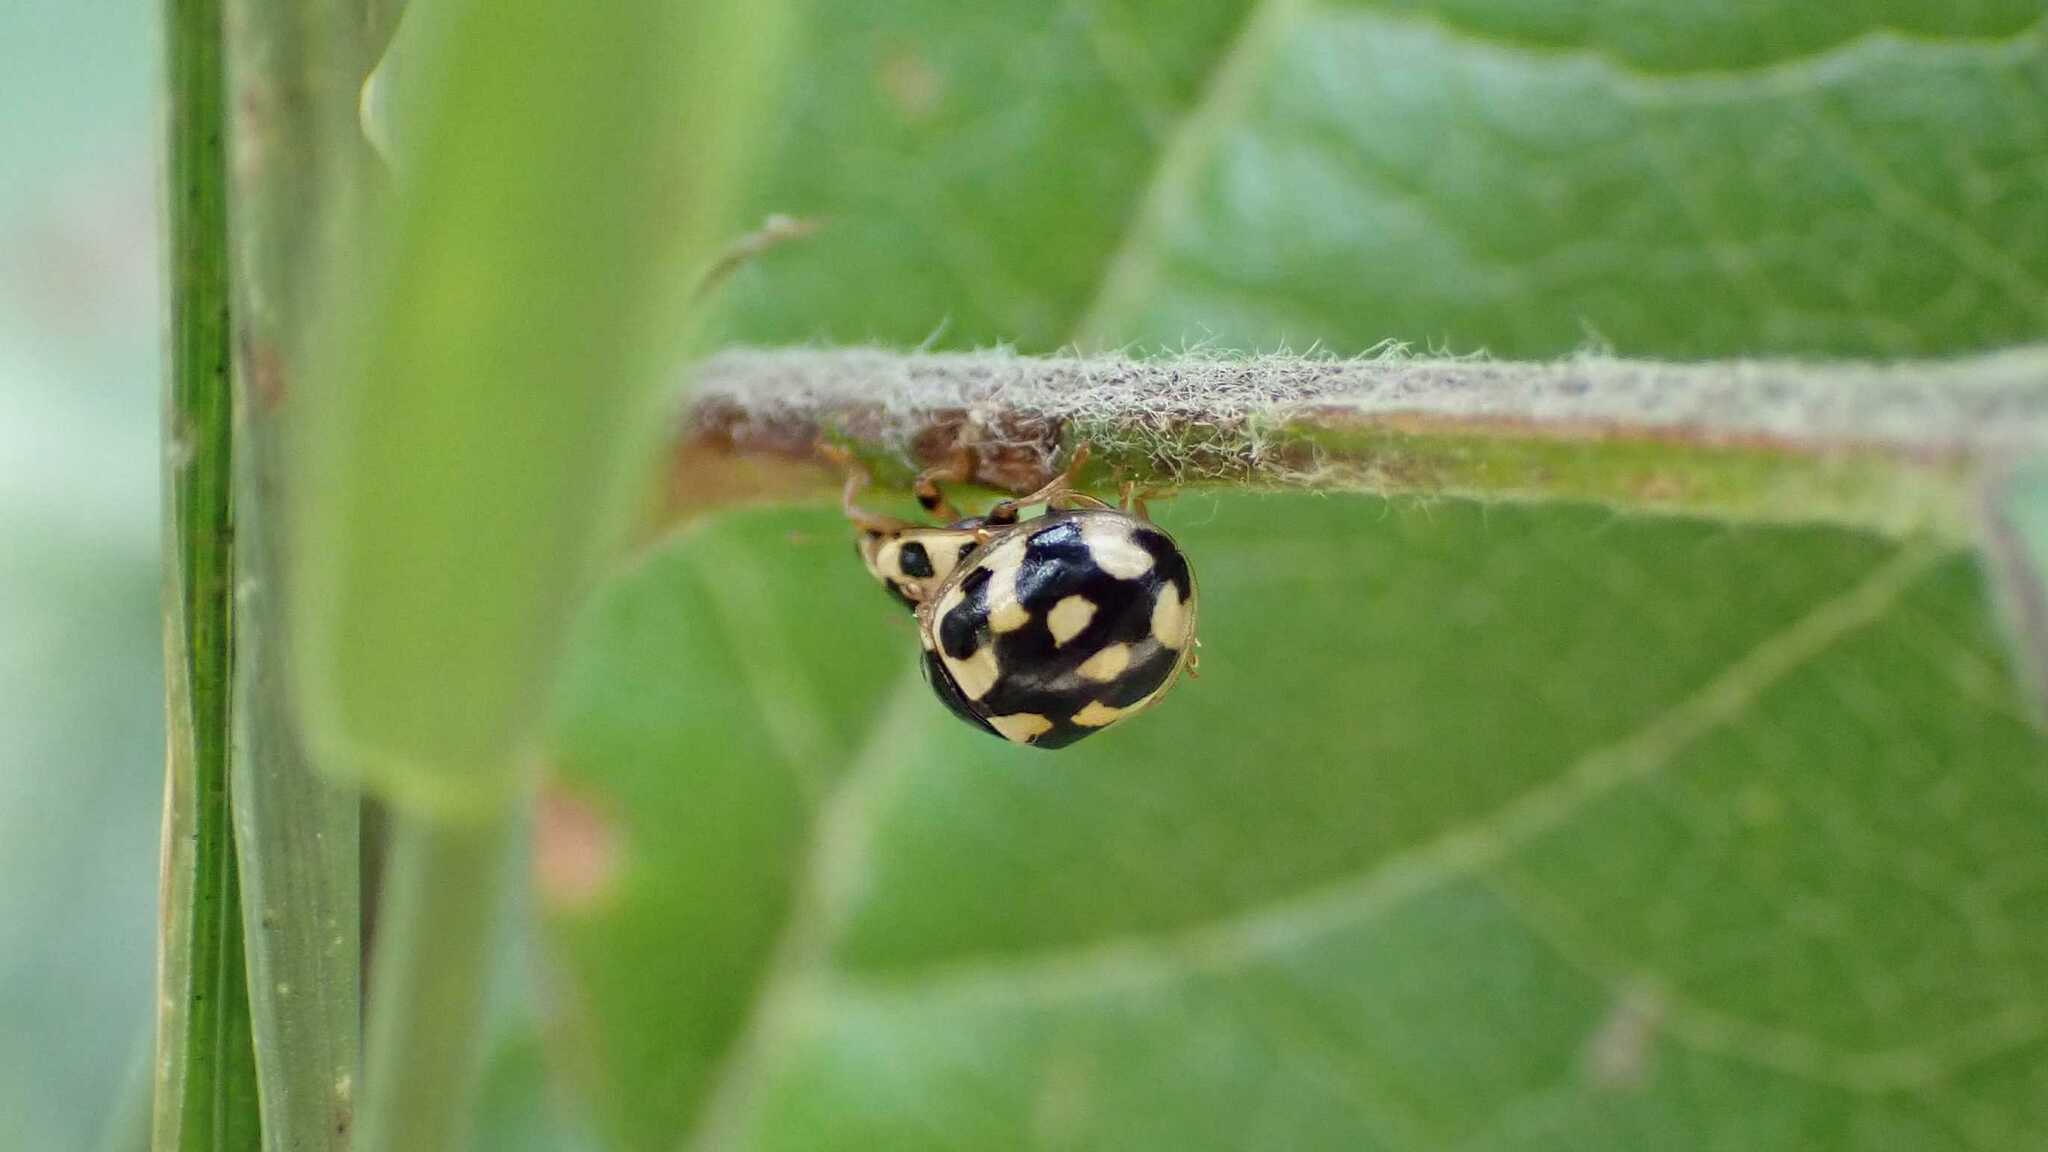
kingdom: Animalia
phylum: Arthropoda
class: Insecta
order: Coleoptera
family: Coccinellidae
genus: Propylaea
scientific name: Propylaea quatuordecimpunctata
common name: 14-spotted ladybird beetle
